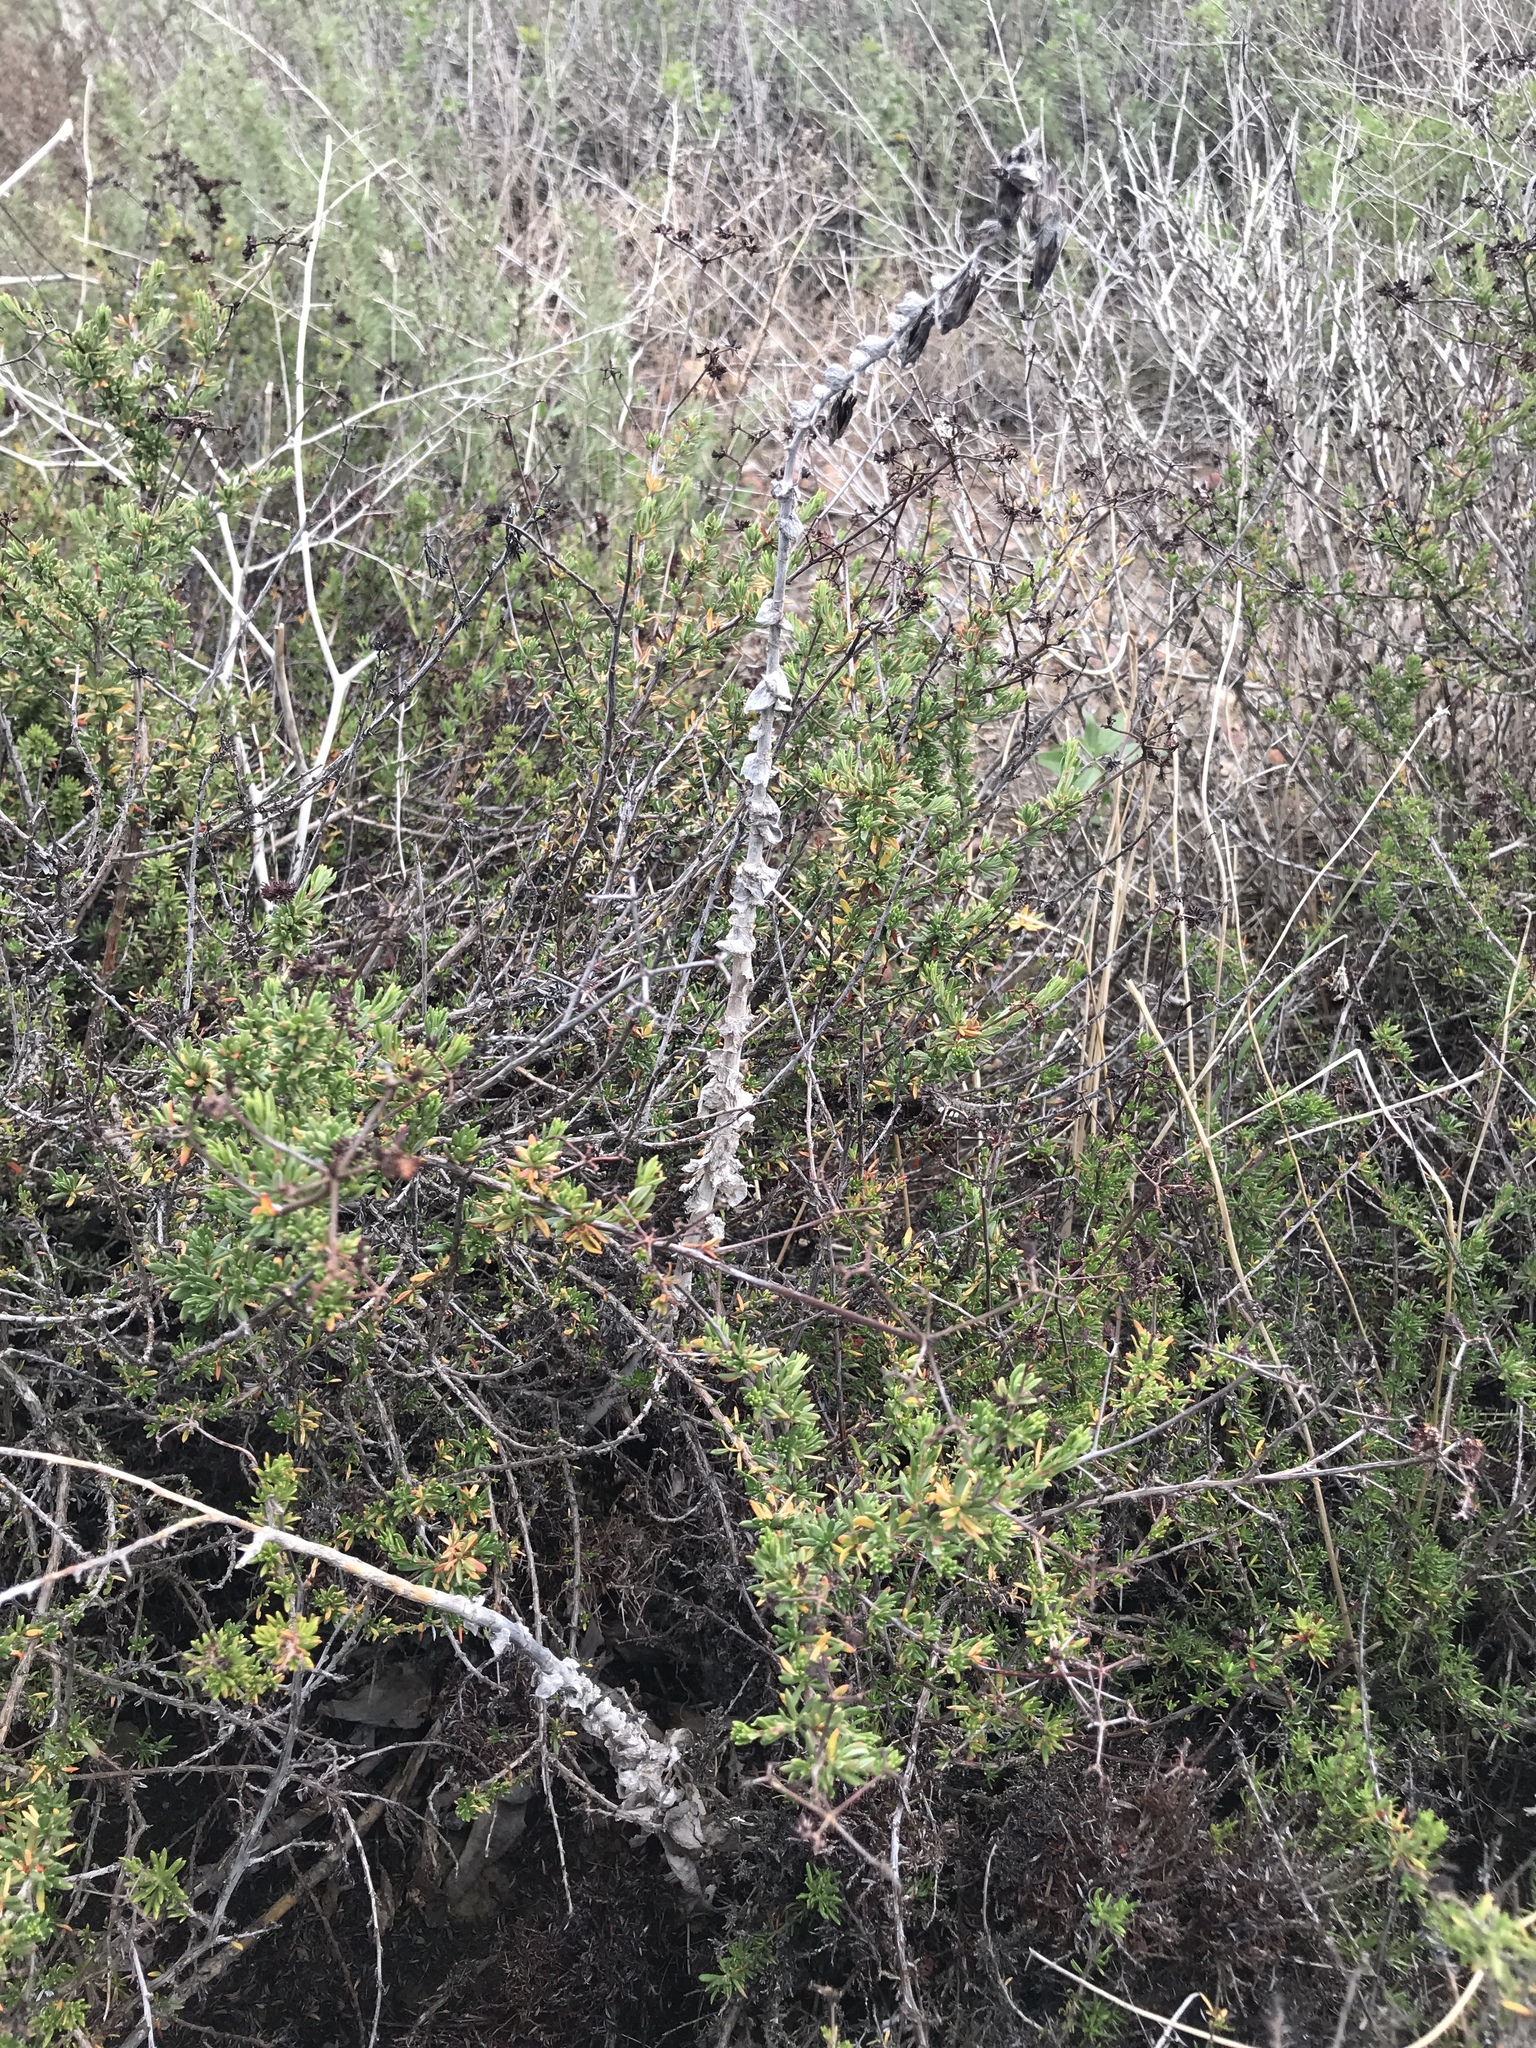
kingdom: Plantae
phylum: Tracheophyta
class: Magnoliopsida
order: Saxifragales
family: Crassulaceae
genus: Dudleya
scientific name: Dudleya pulverulenta
